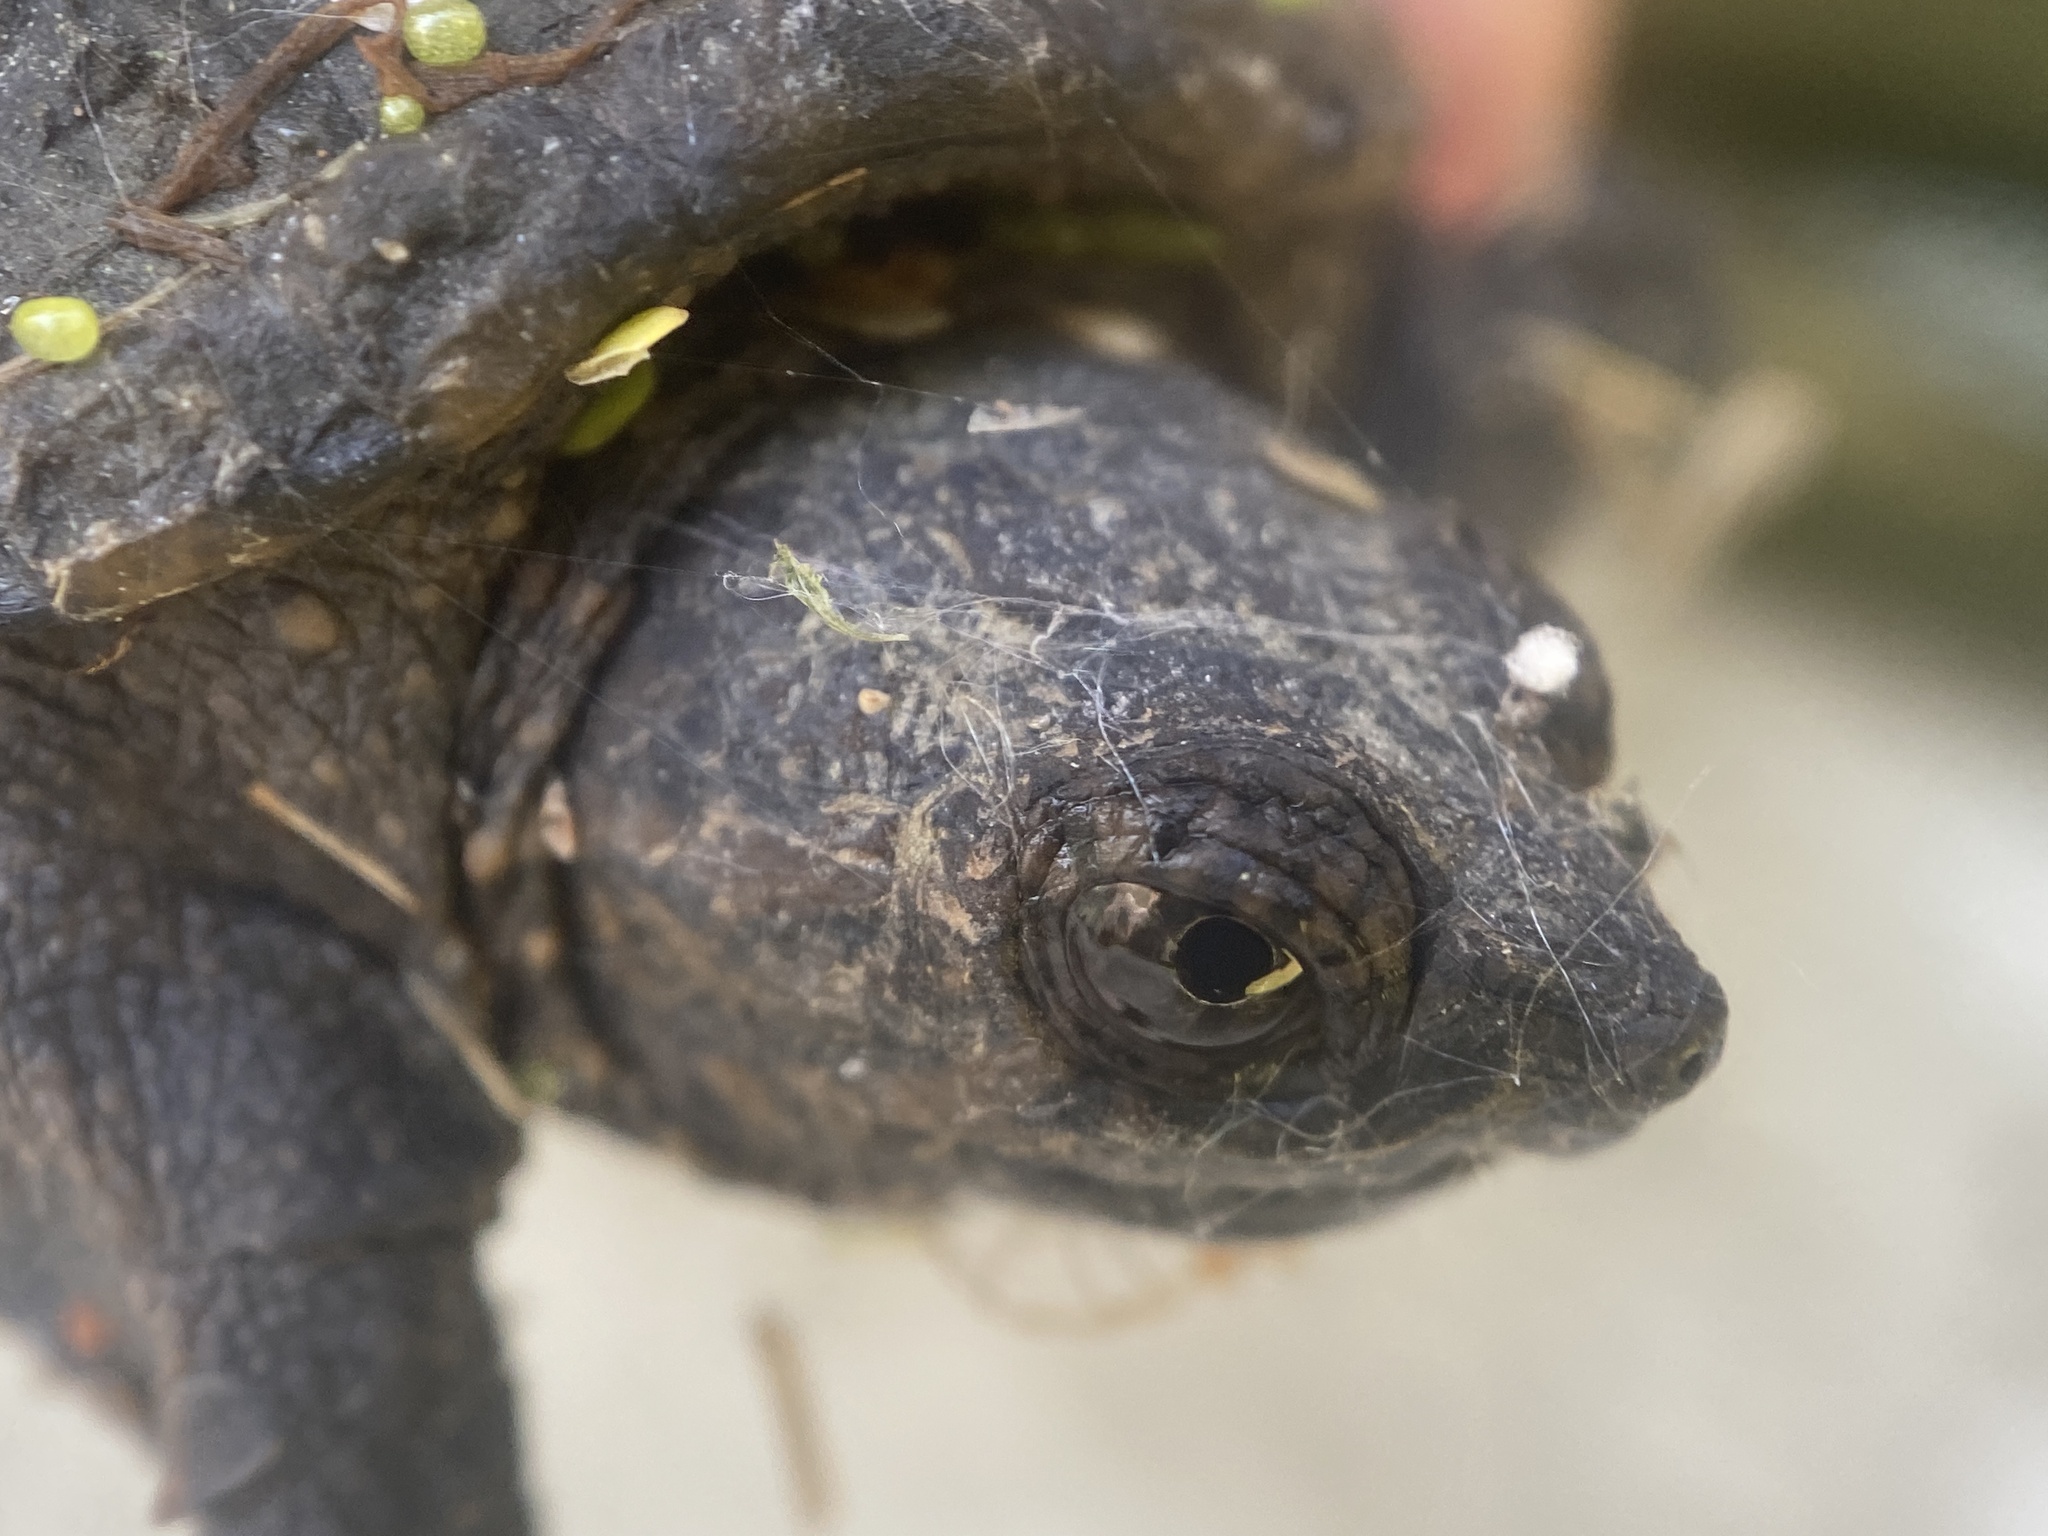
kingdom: Animalia
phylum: Chordata
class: Testudines
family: Chelydridae
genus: Chelydra
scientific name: Chelydra serpentina
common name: Common snapping turtle
